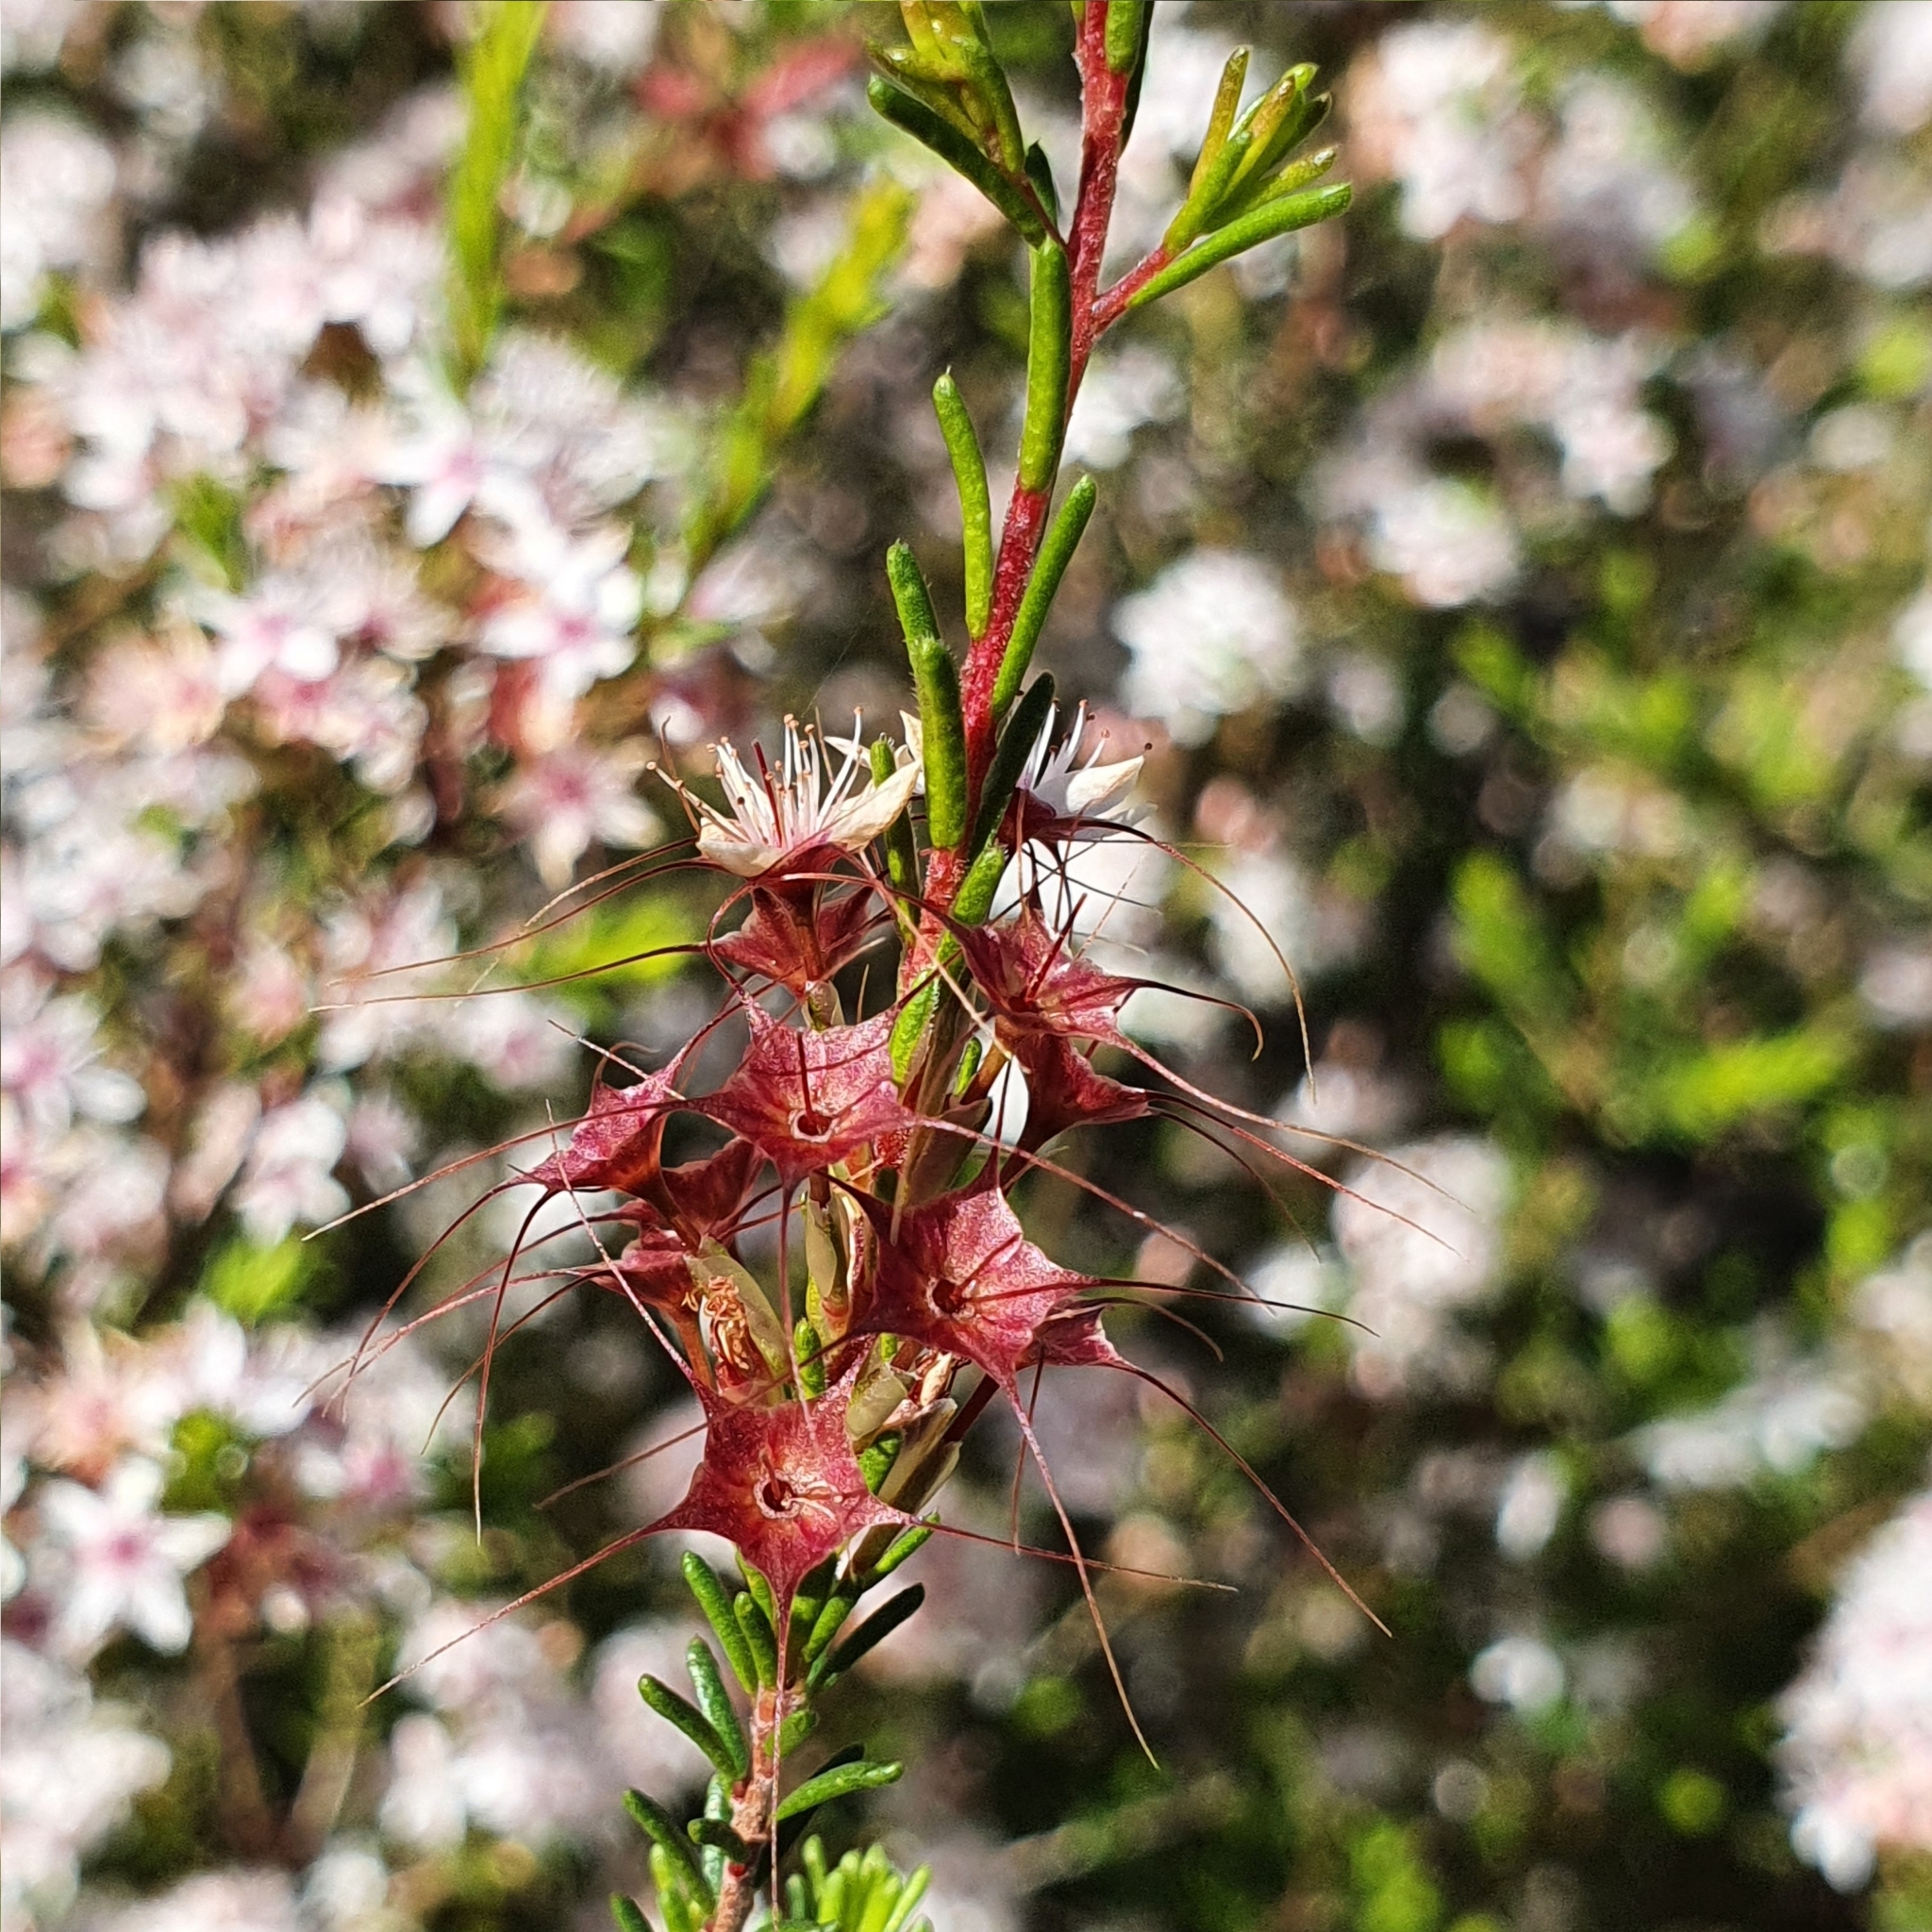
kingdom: Plantae
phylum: Tracheophyta
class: Magnoliopsida
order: Myrtales
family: Myrtaceae
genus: Calytrix
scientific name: Calytrix tetragona
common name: Common fringe myrtle
